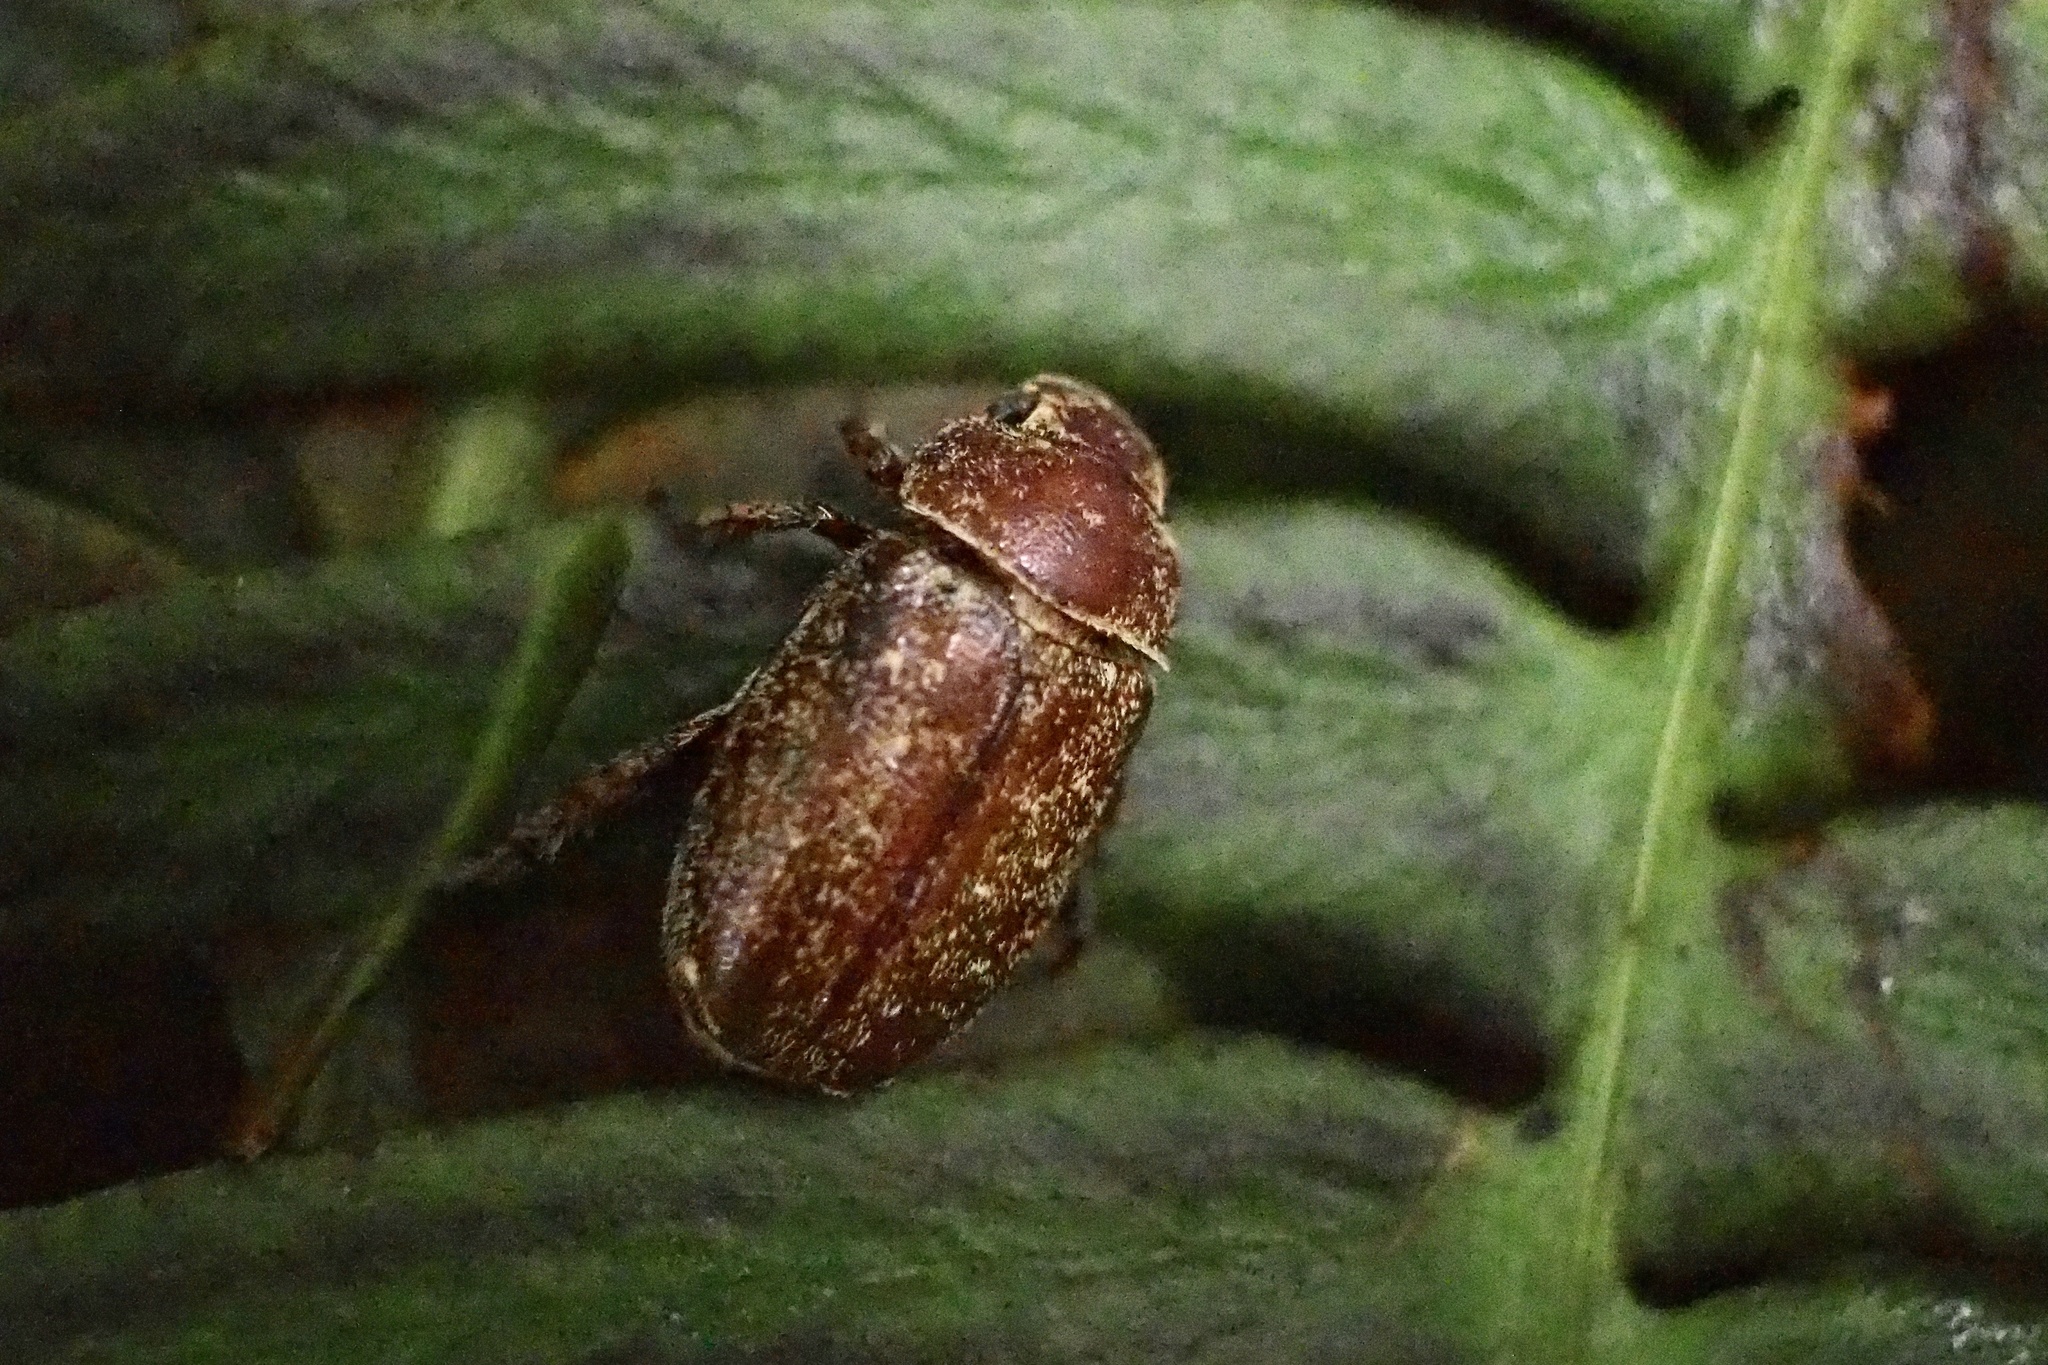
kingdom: Animalia
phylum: Arthropoda
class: Insecta
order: Coleoptera
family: Scarabaeidae
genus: Adoretus
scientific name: Adoretus tenuimaculatus
